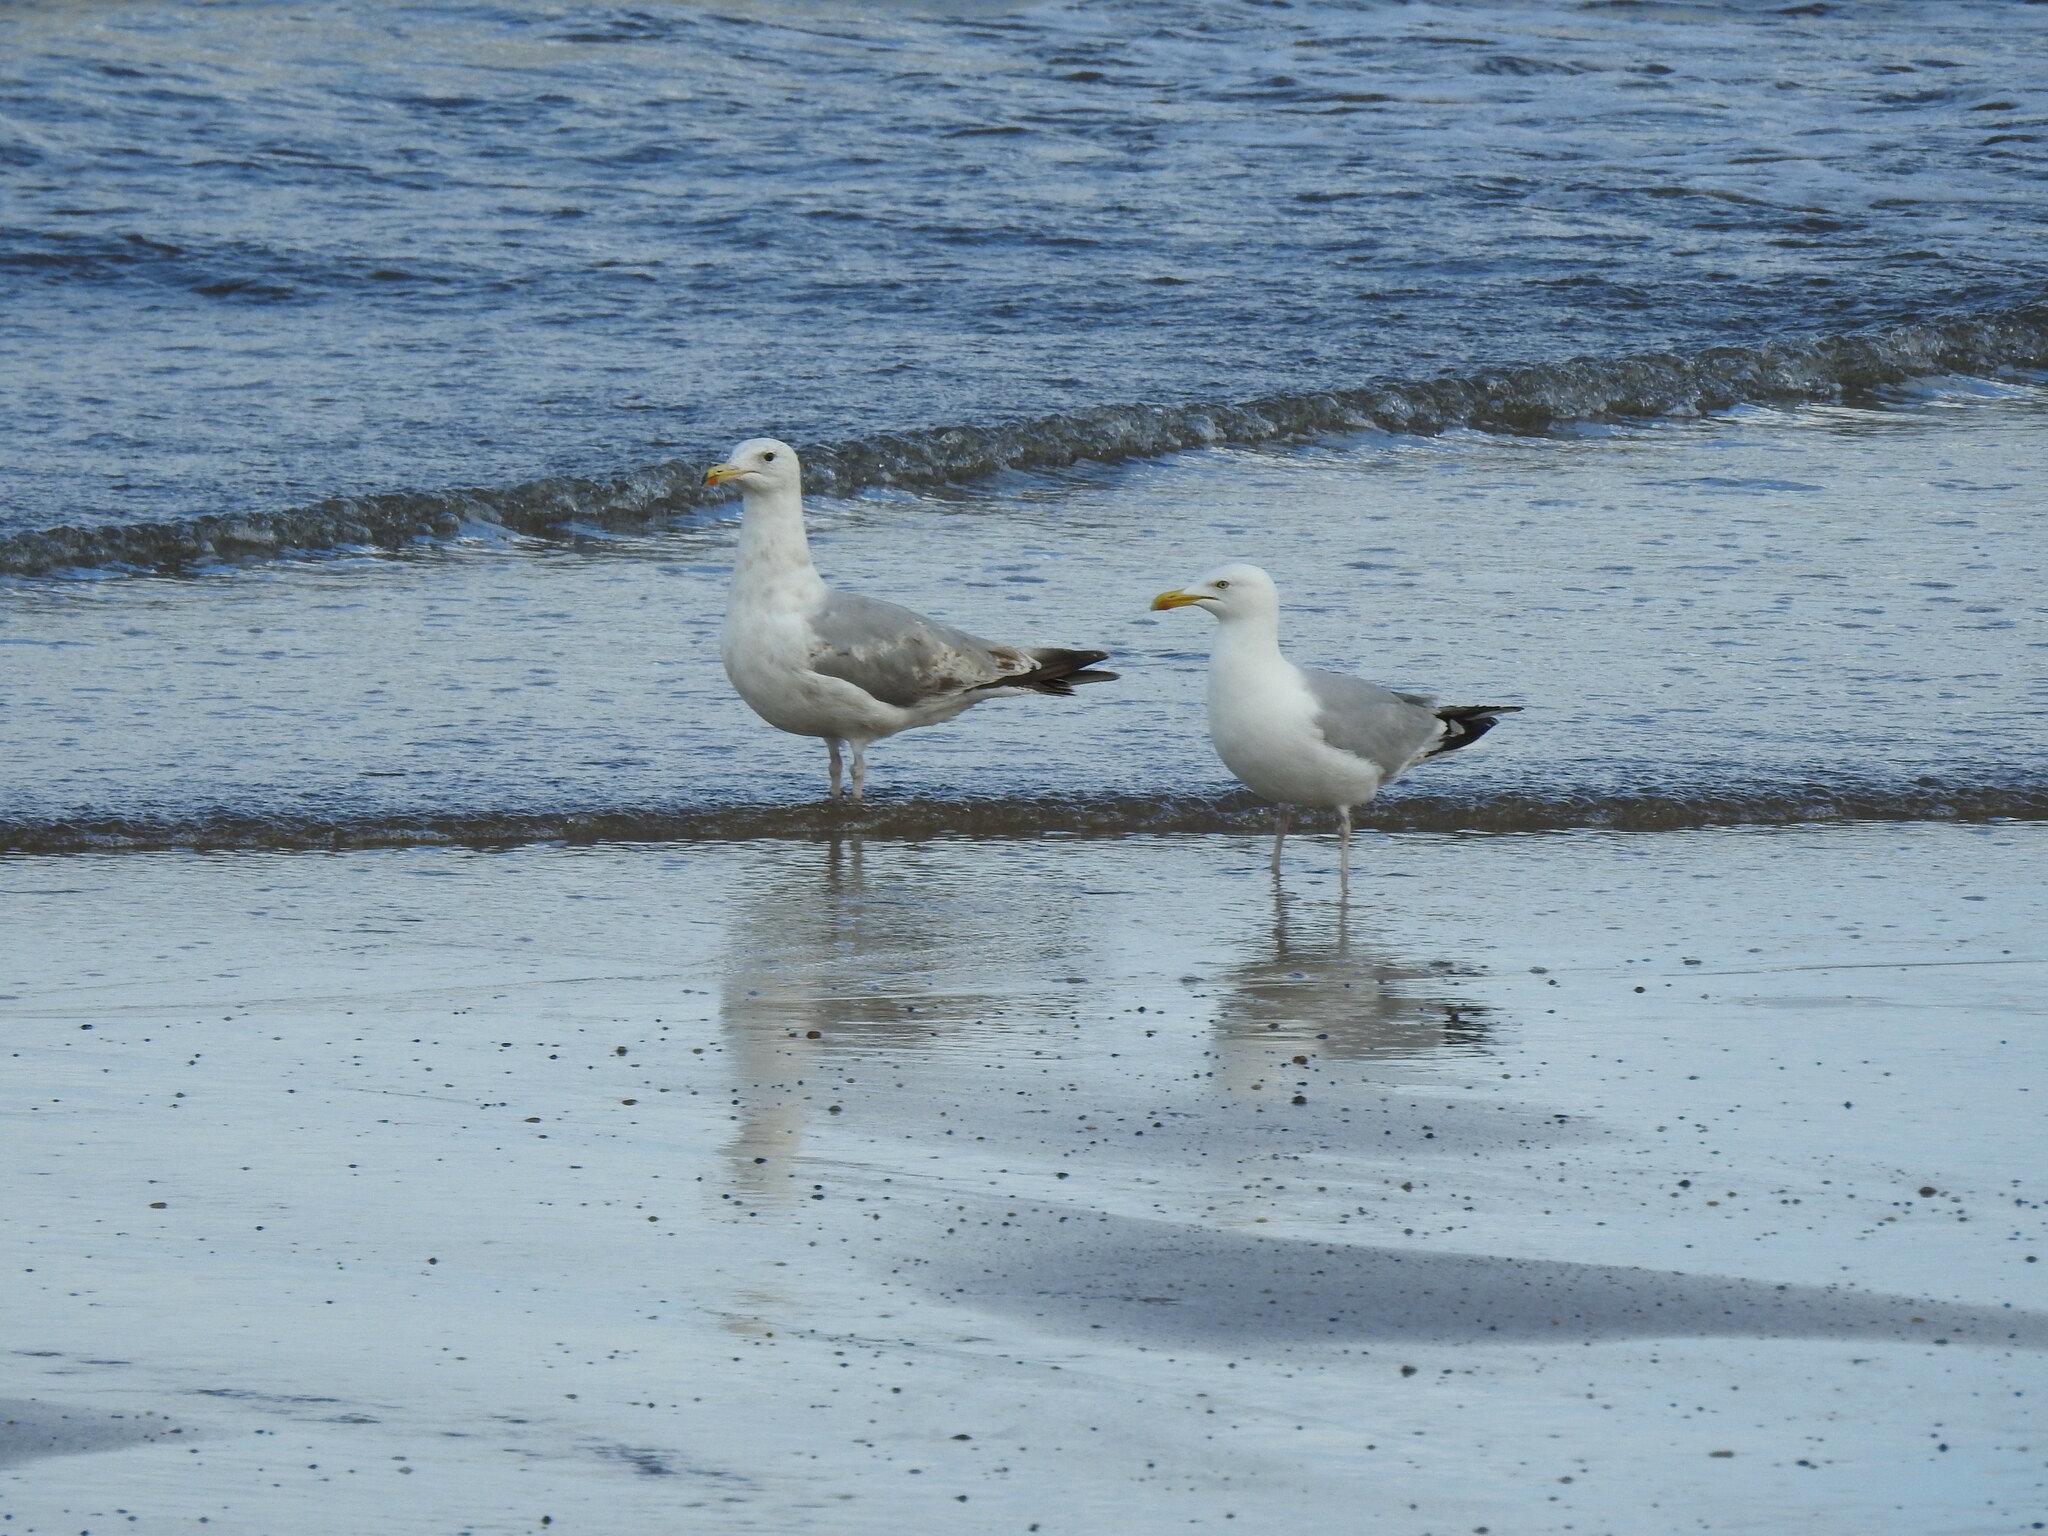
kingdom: Animalia
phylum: Chordata
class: Aves
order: Charadriiformes
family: Laridae
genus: Larus
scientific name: Larus argentatus
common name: Herring gull
